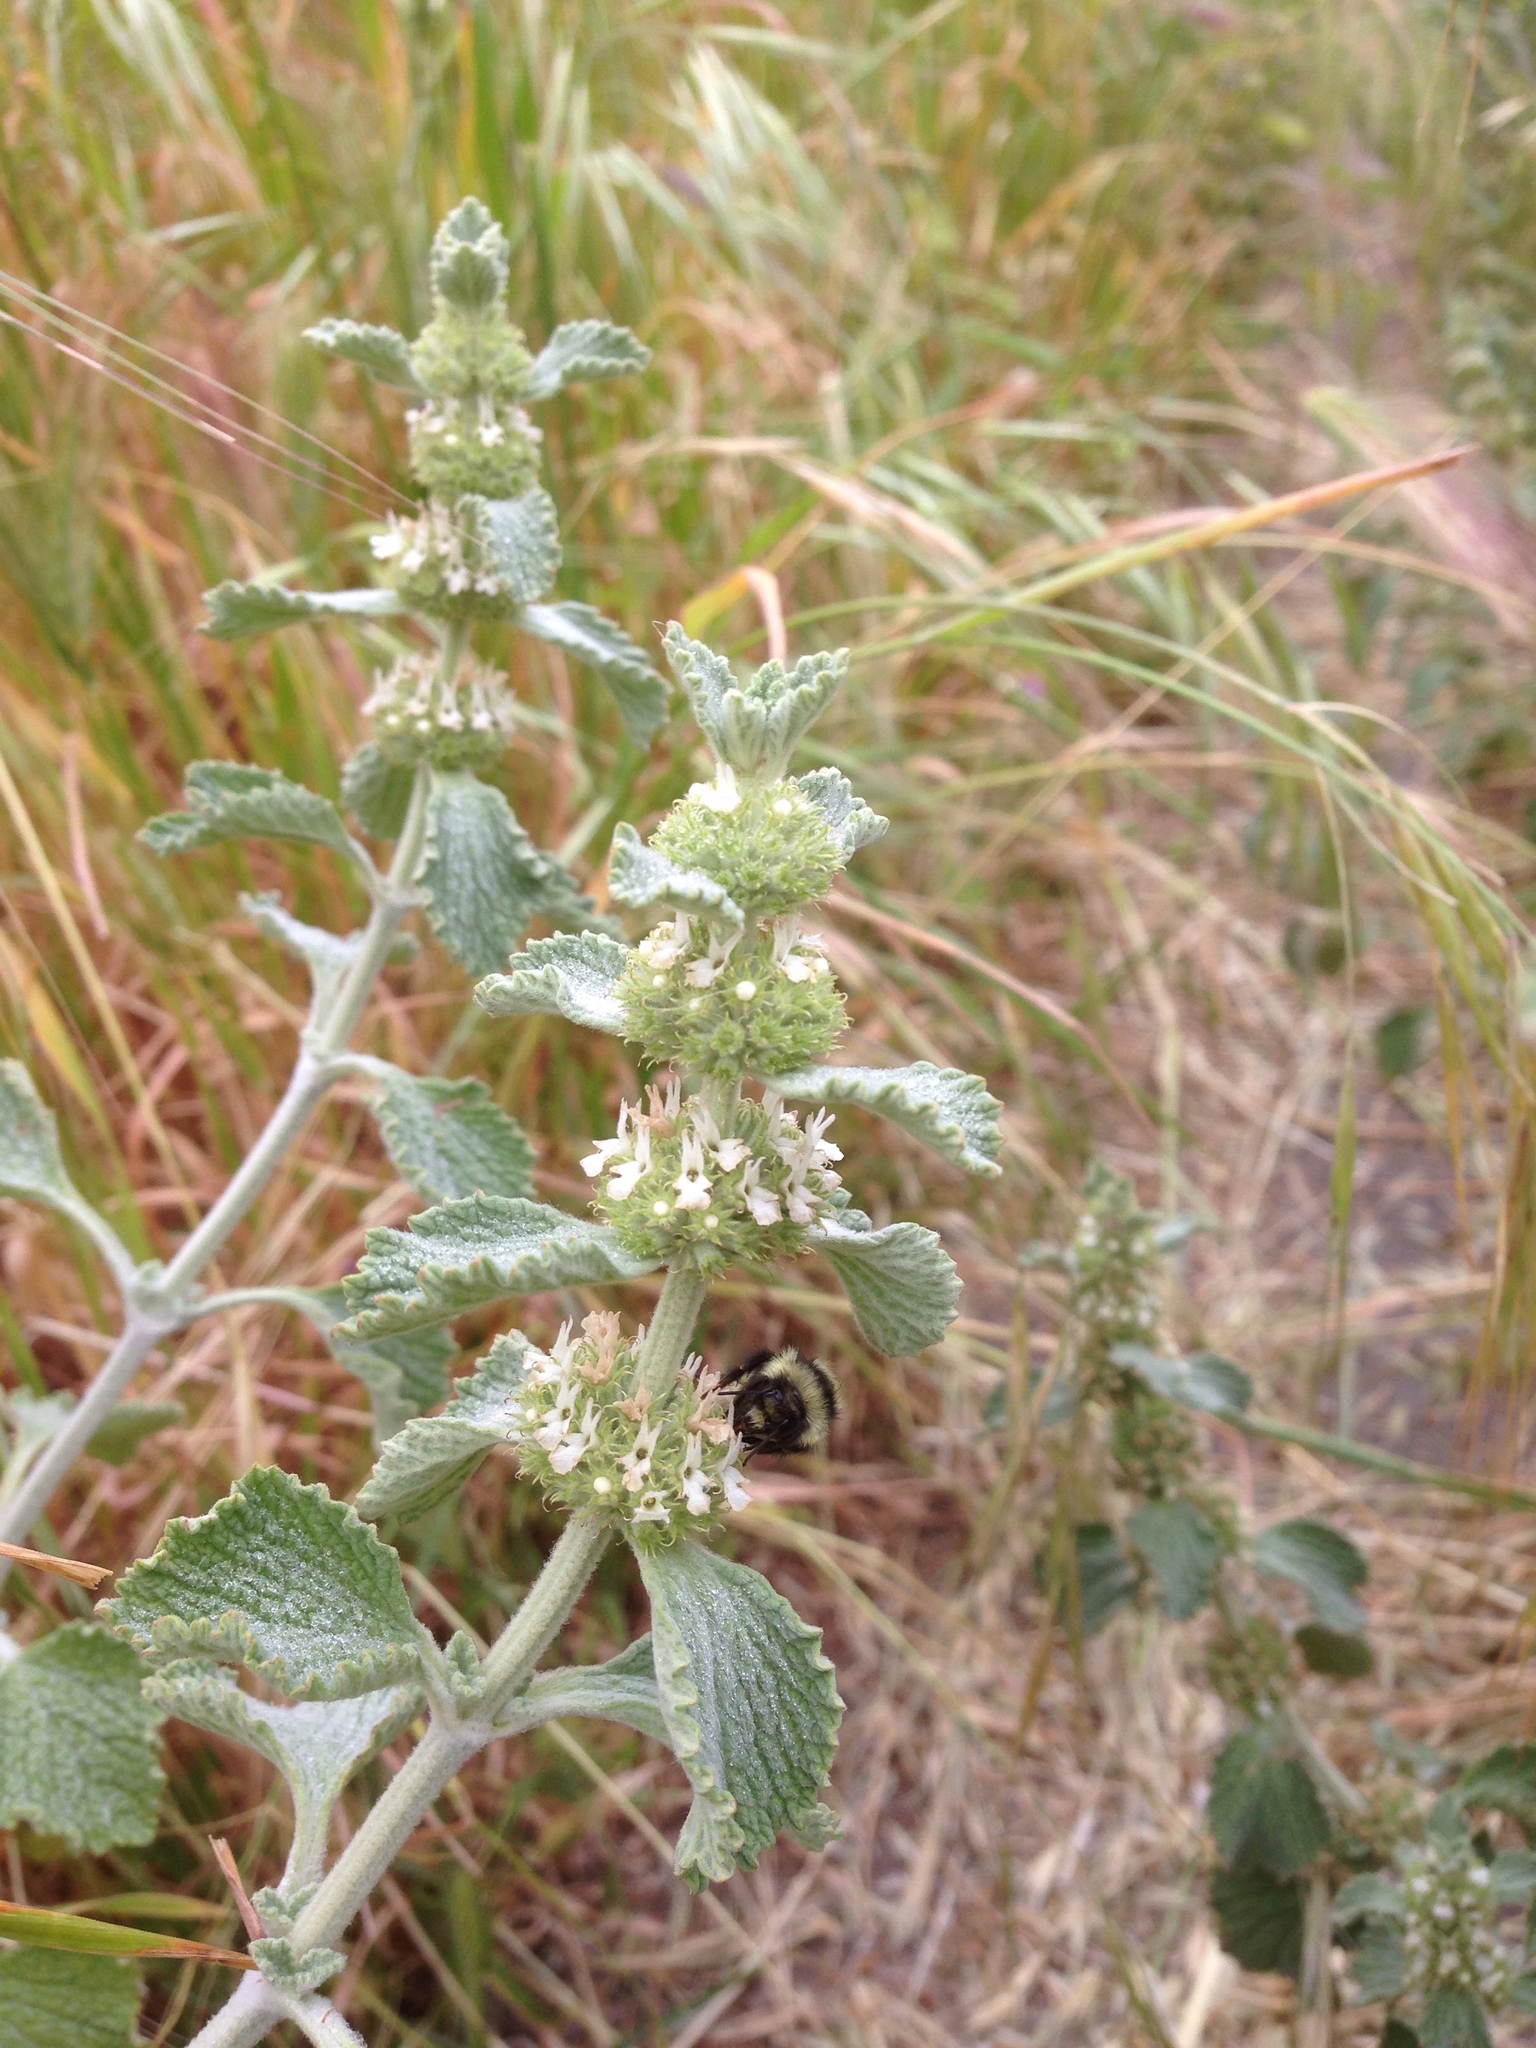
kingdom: Animalia
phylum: Arthropoda
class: Insecta
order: Hymenoptera
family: Apidae
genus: Bombus
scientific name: Bombus melanopygus
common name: Black tail bumble bee
